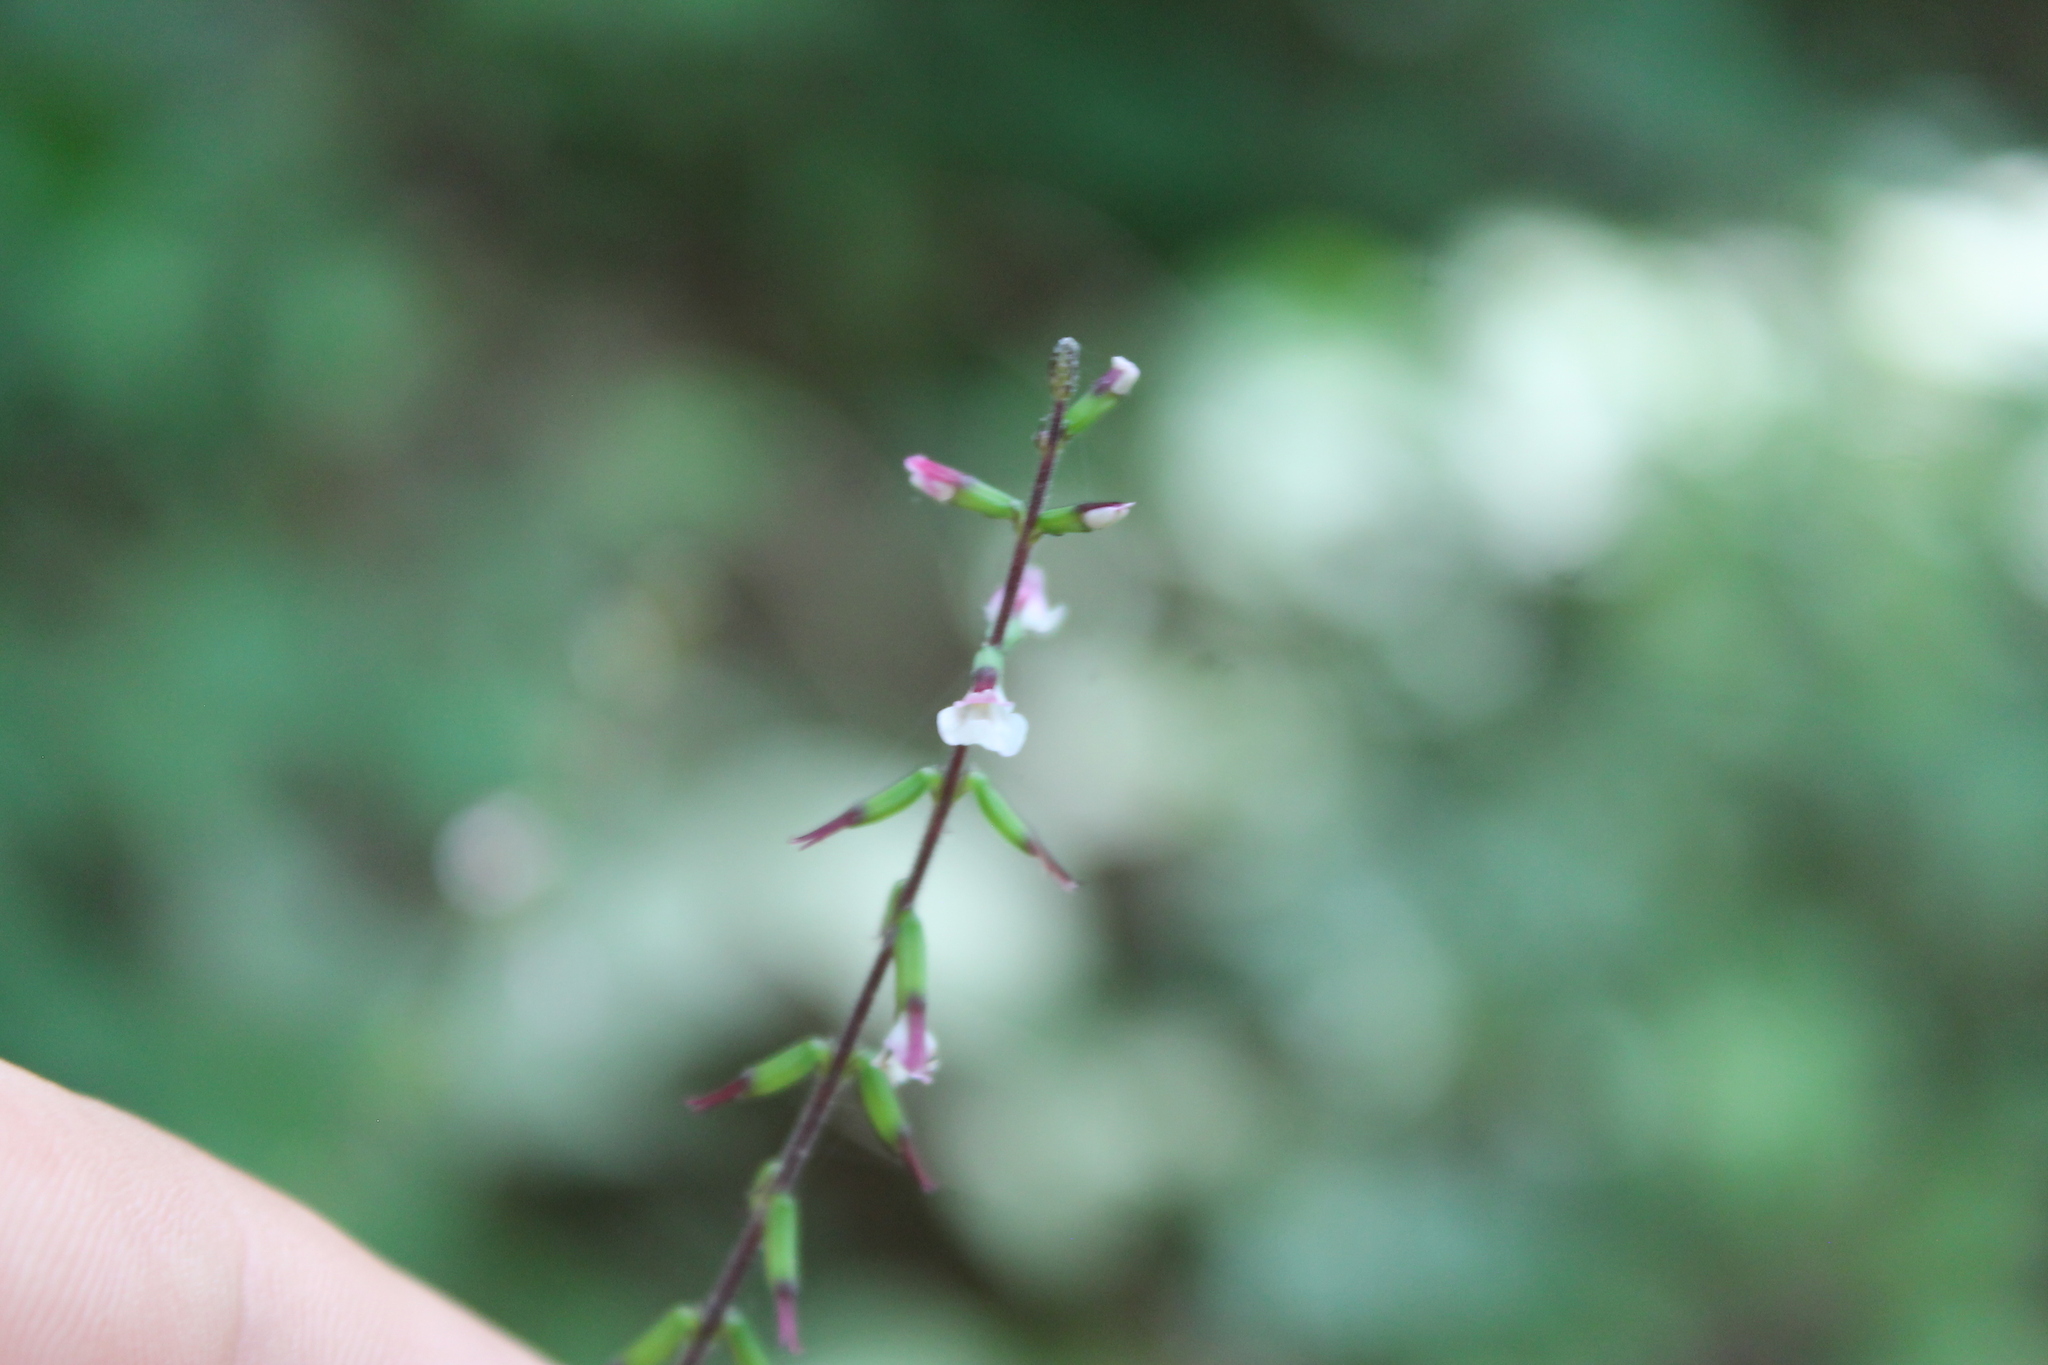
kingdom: Plantae
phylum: Tracheophyta
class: Magnoliopsida
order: Lamiales
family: Phrymaceae
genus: Phryma
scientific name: Phryma leptostachya
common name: American lopseed
